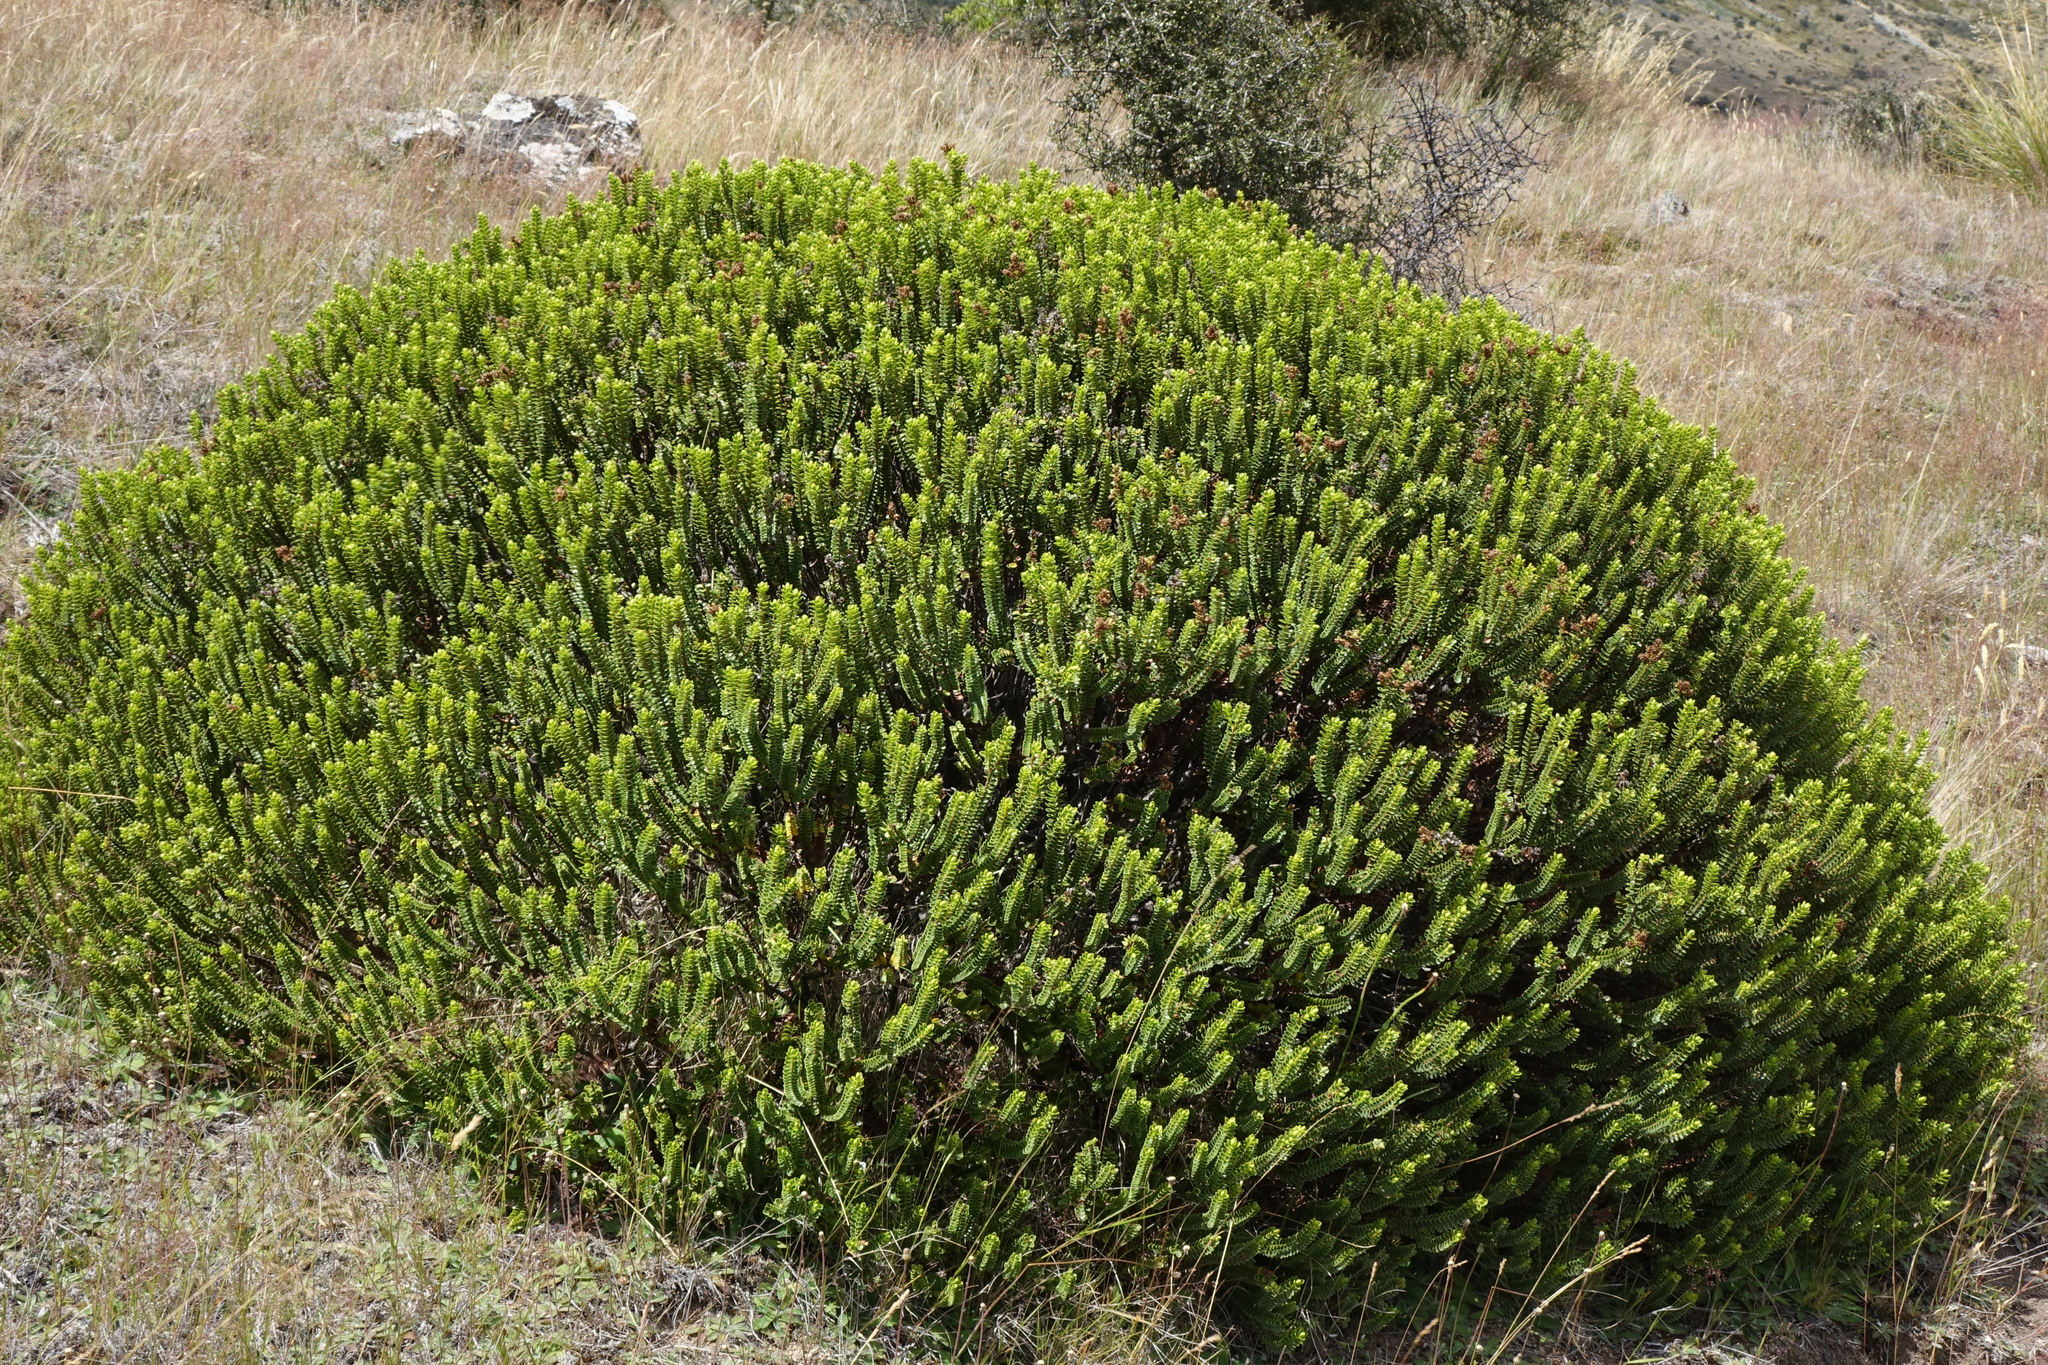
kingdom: Plantae
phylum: Tracheophyta
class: Magnoliopsida
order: Lamiales
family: Plantaginaceae
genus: Veronica
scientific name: Veronica odora
